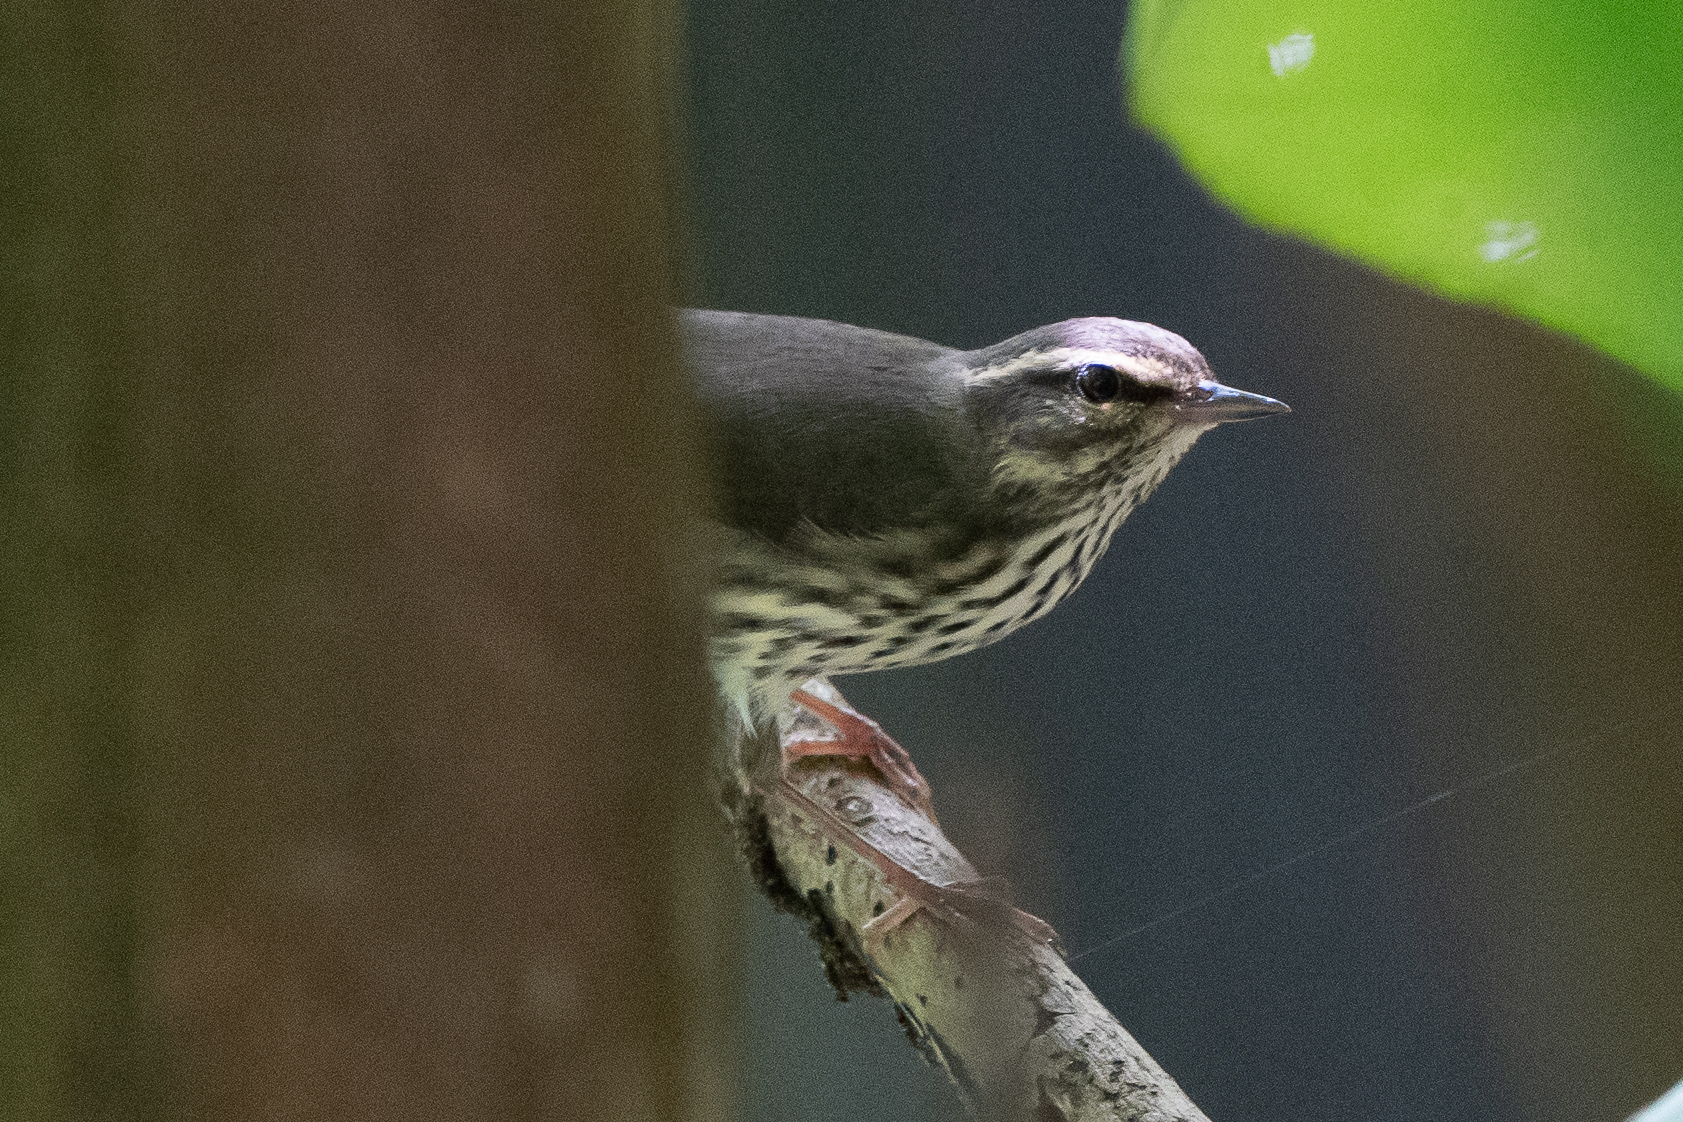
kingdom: Animalia
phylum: Chordata
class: Aves
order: Passeriformes
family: Parulidae
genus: Parkesia
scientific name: Parkesia noveboracensis
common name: Northern waterthrush
